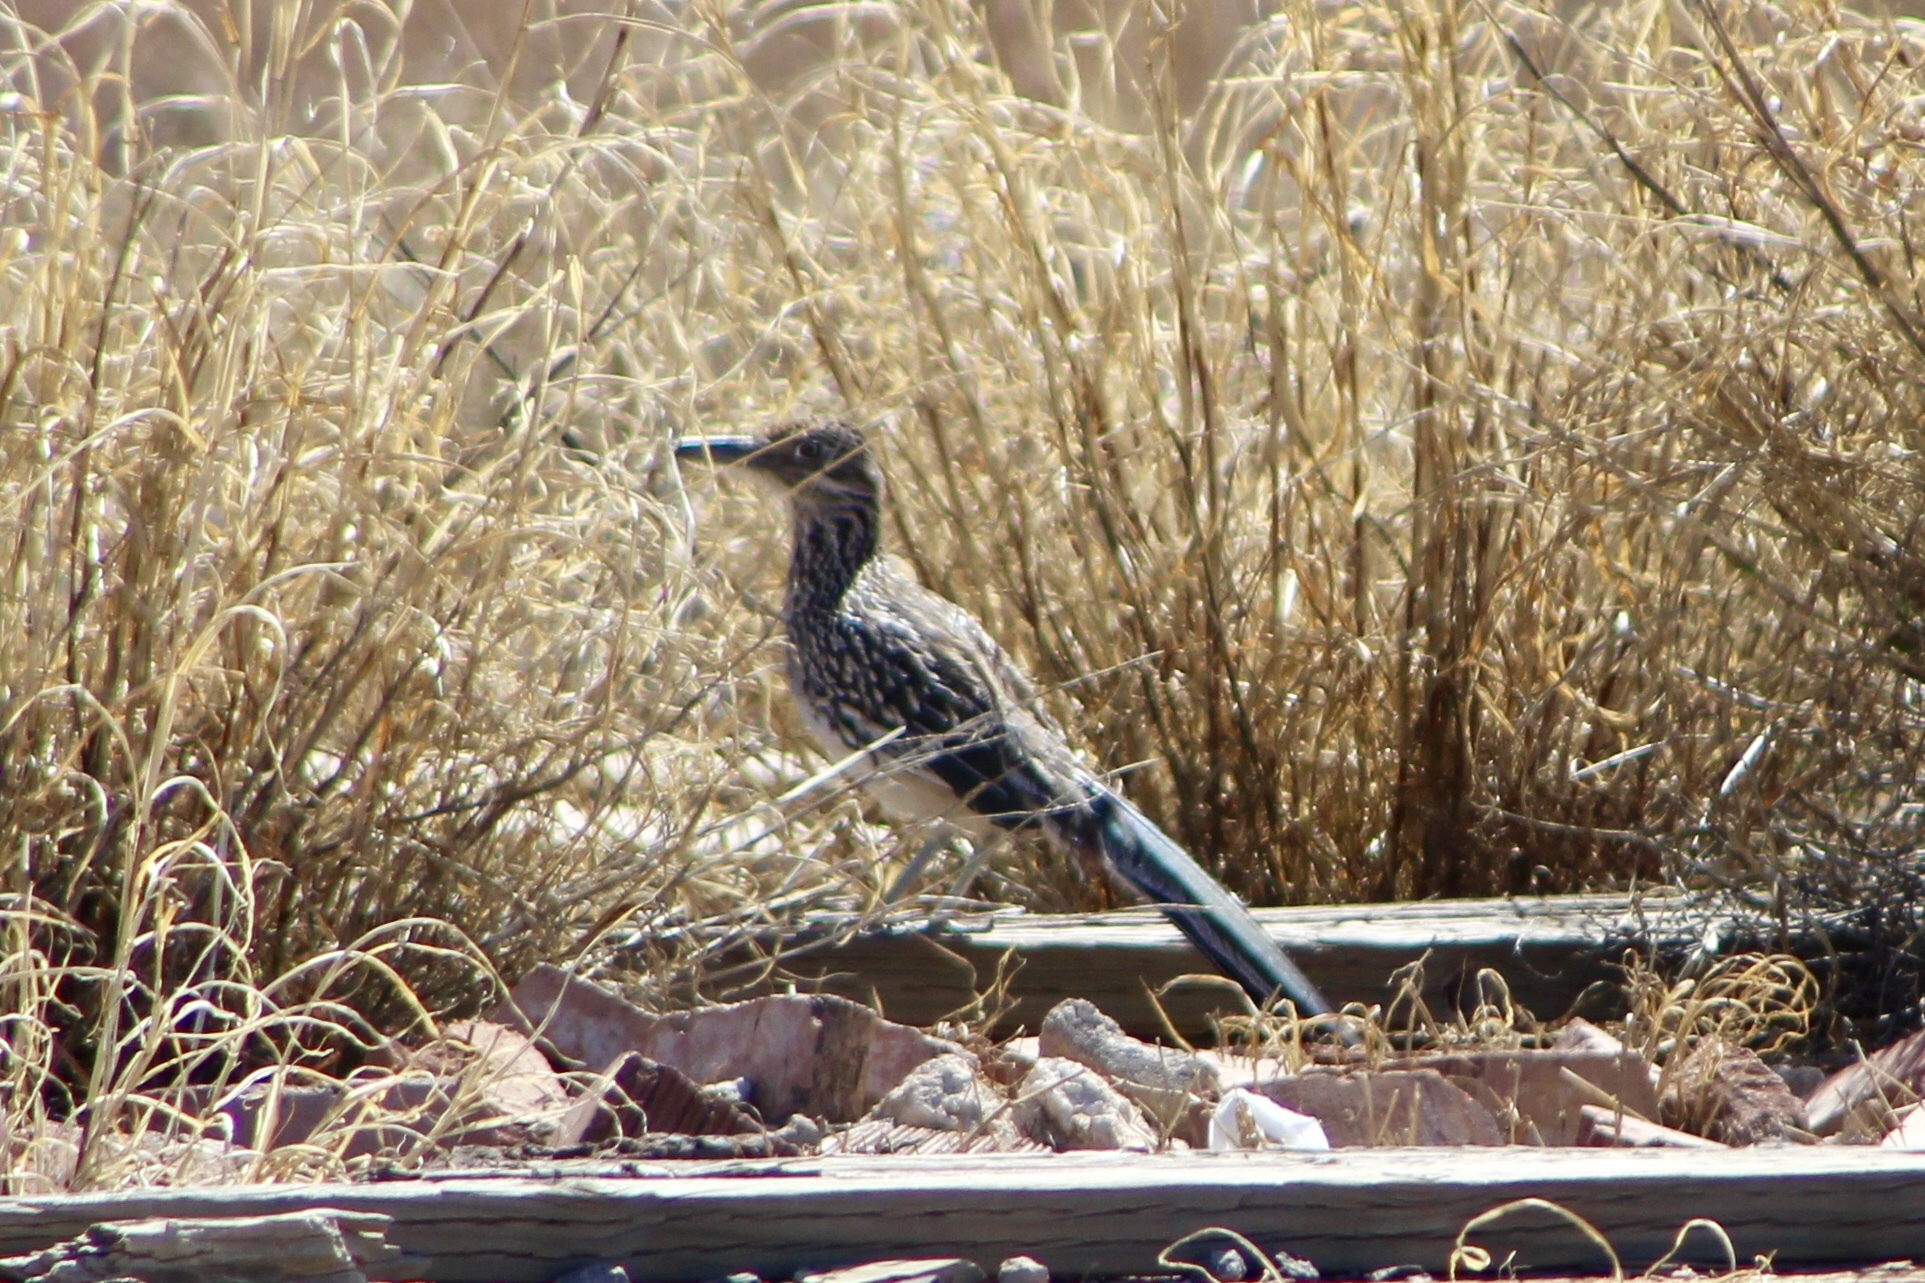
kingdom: Animalia
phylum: Chordata
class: Aves
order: Cuculiformes
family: Cuculidae
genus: Geococcyx
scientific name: Geococcyx californianus
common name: Greater roadrunner
